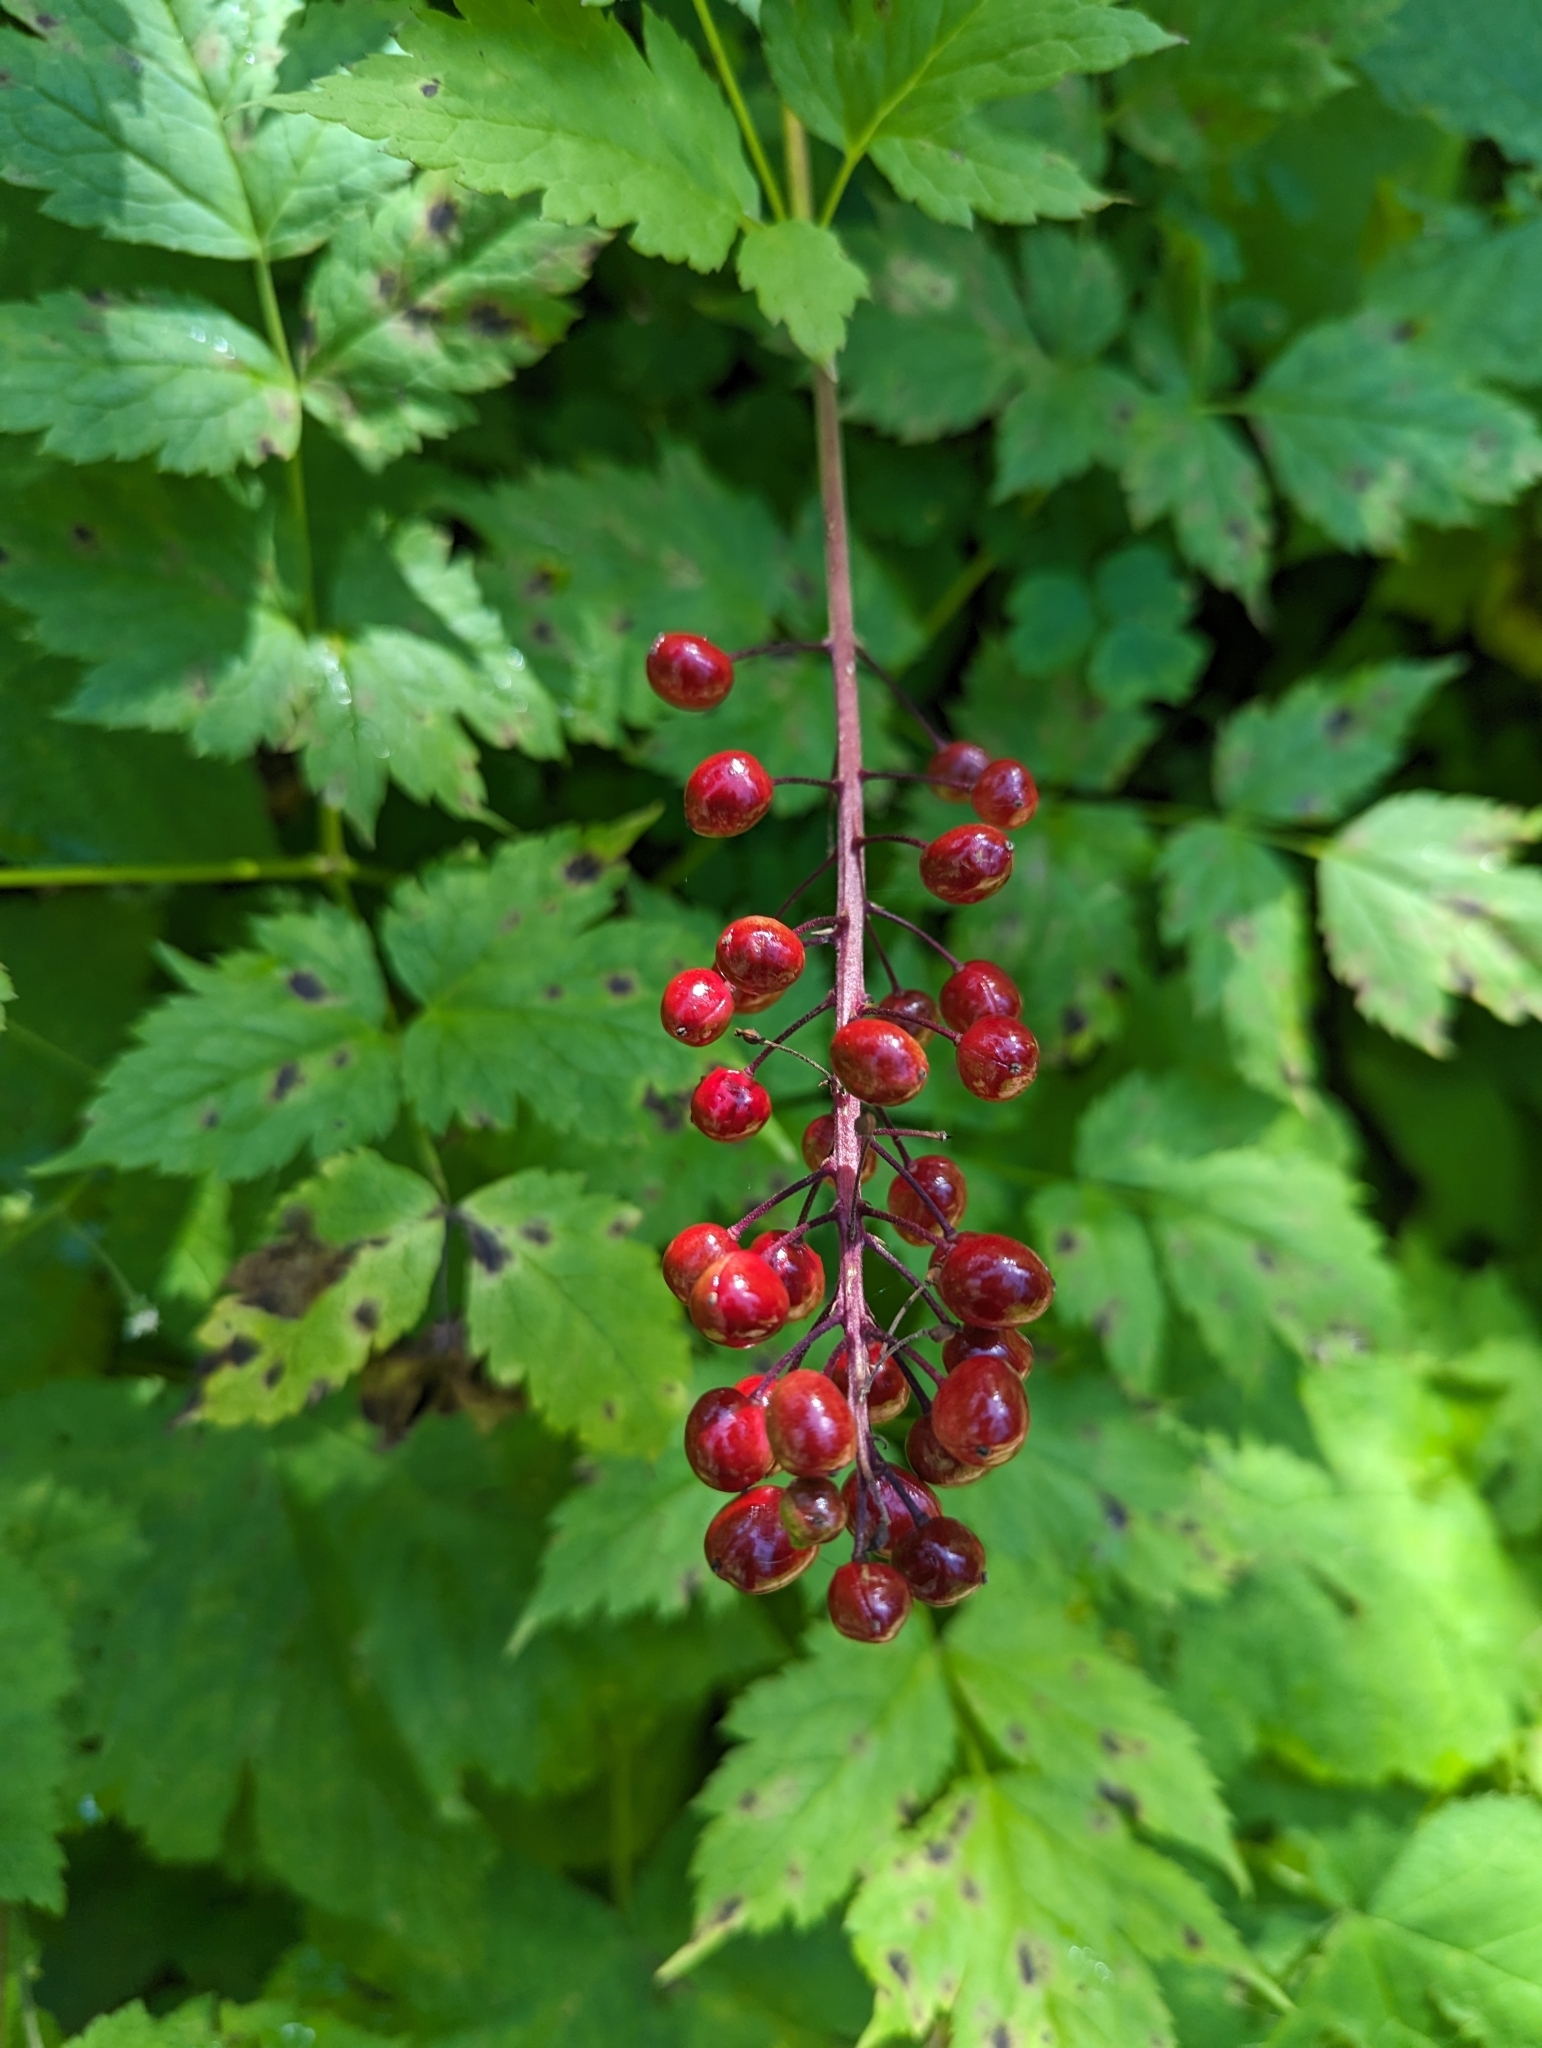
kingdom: Plantae
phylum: Tracheophyta
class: Magnoliopsida
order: Ranunculales
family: Ranunculaceae
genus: Actaea
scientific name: Actaea rubra
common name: Red baneberry
